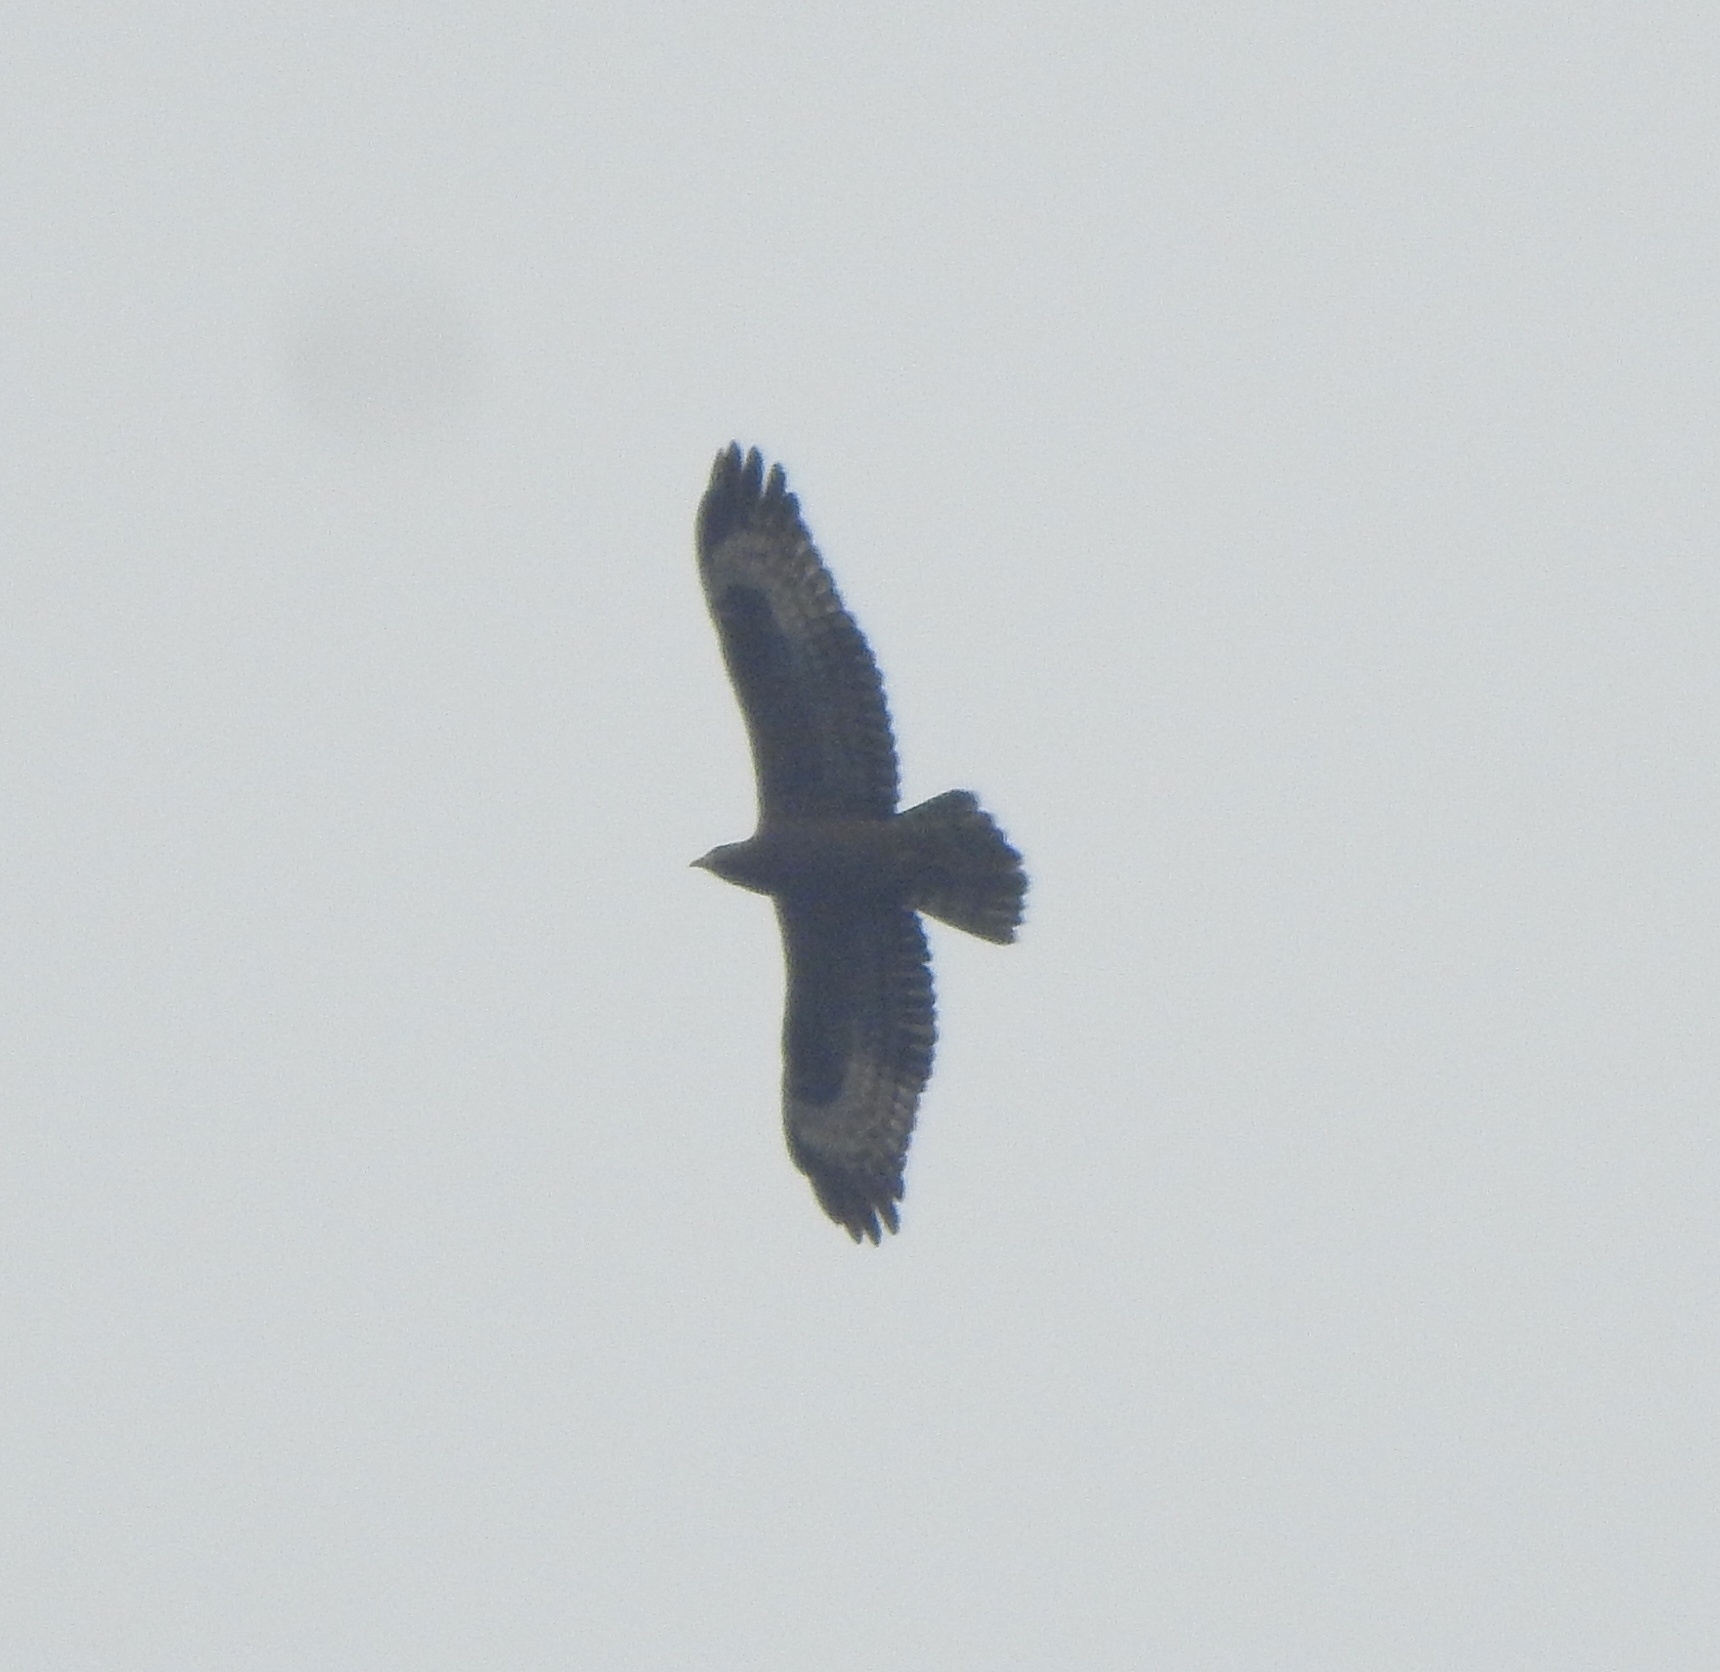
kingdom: Animalia
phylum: Chordata
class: Aves
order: Accipitriformes
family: Accipitridae
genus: Pernis
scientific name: Pernis ptilorhynchus
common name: Crested honey buzzard
